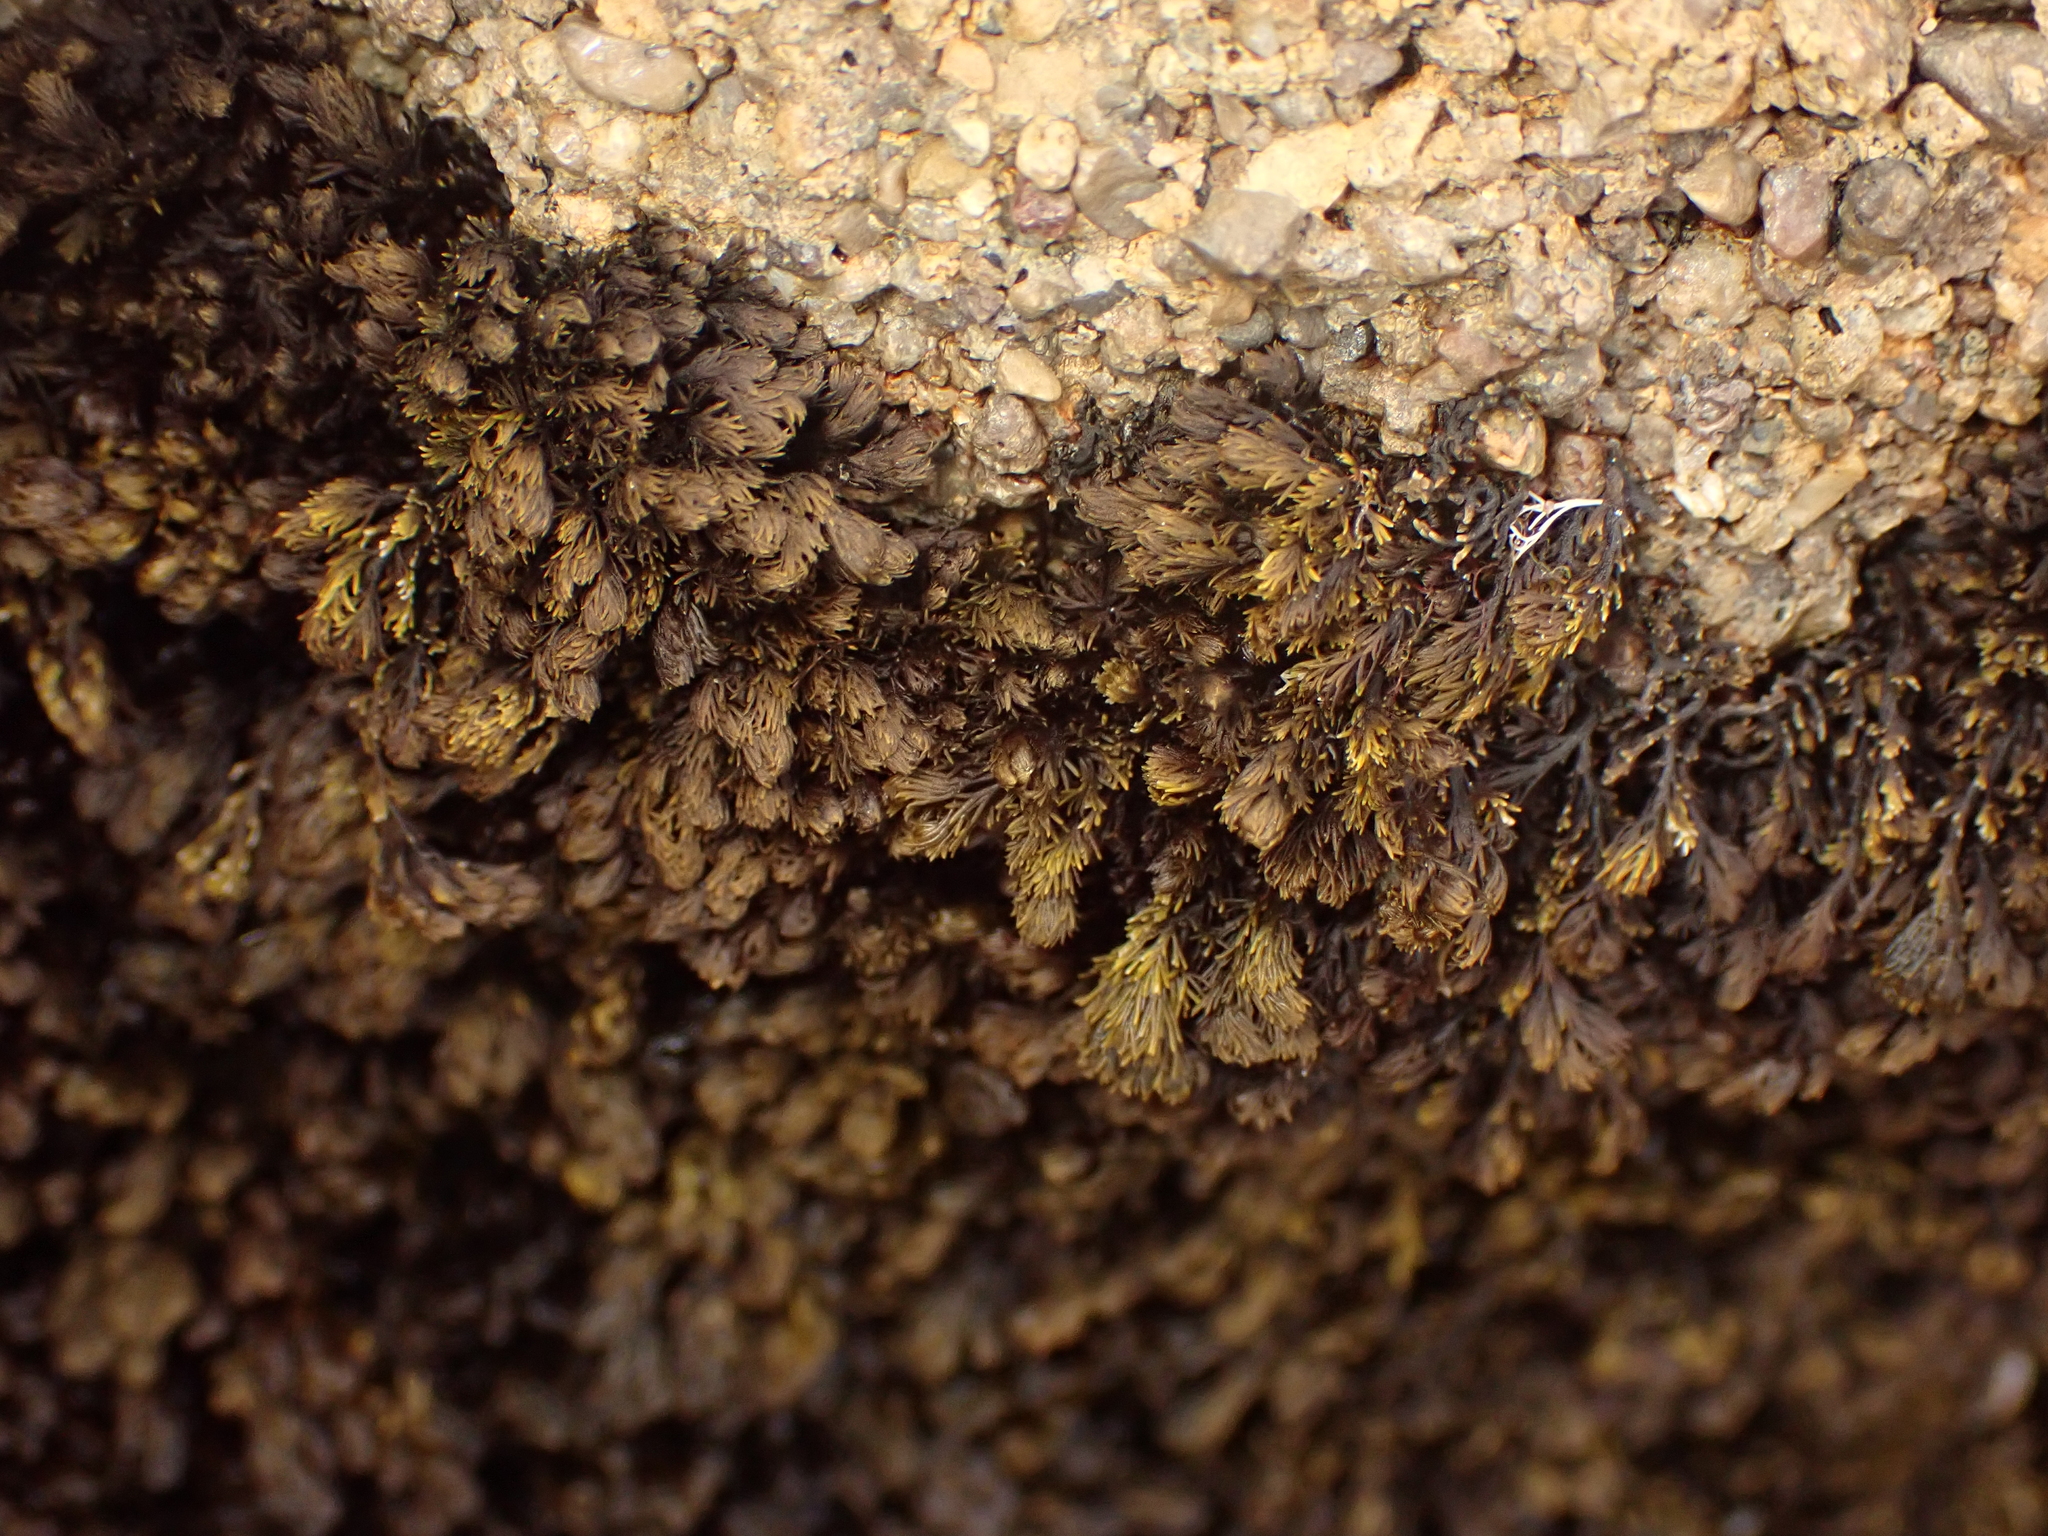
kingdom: Plantae
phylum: Rhodophyta
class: Florideophyceae
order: Ceramiales
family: Rhodomelaceae
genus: Bostrychia
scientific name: Bostrychia arbuscula
